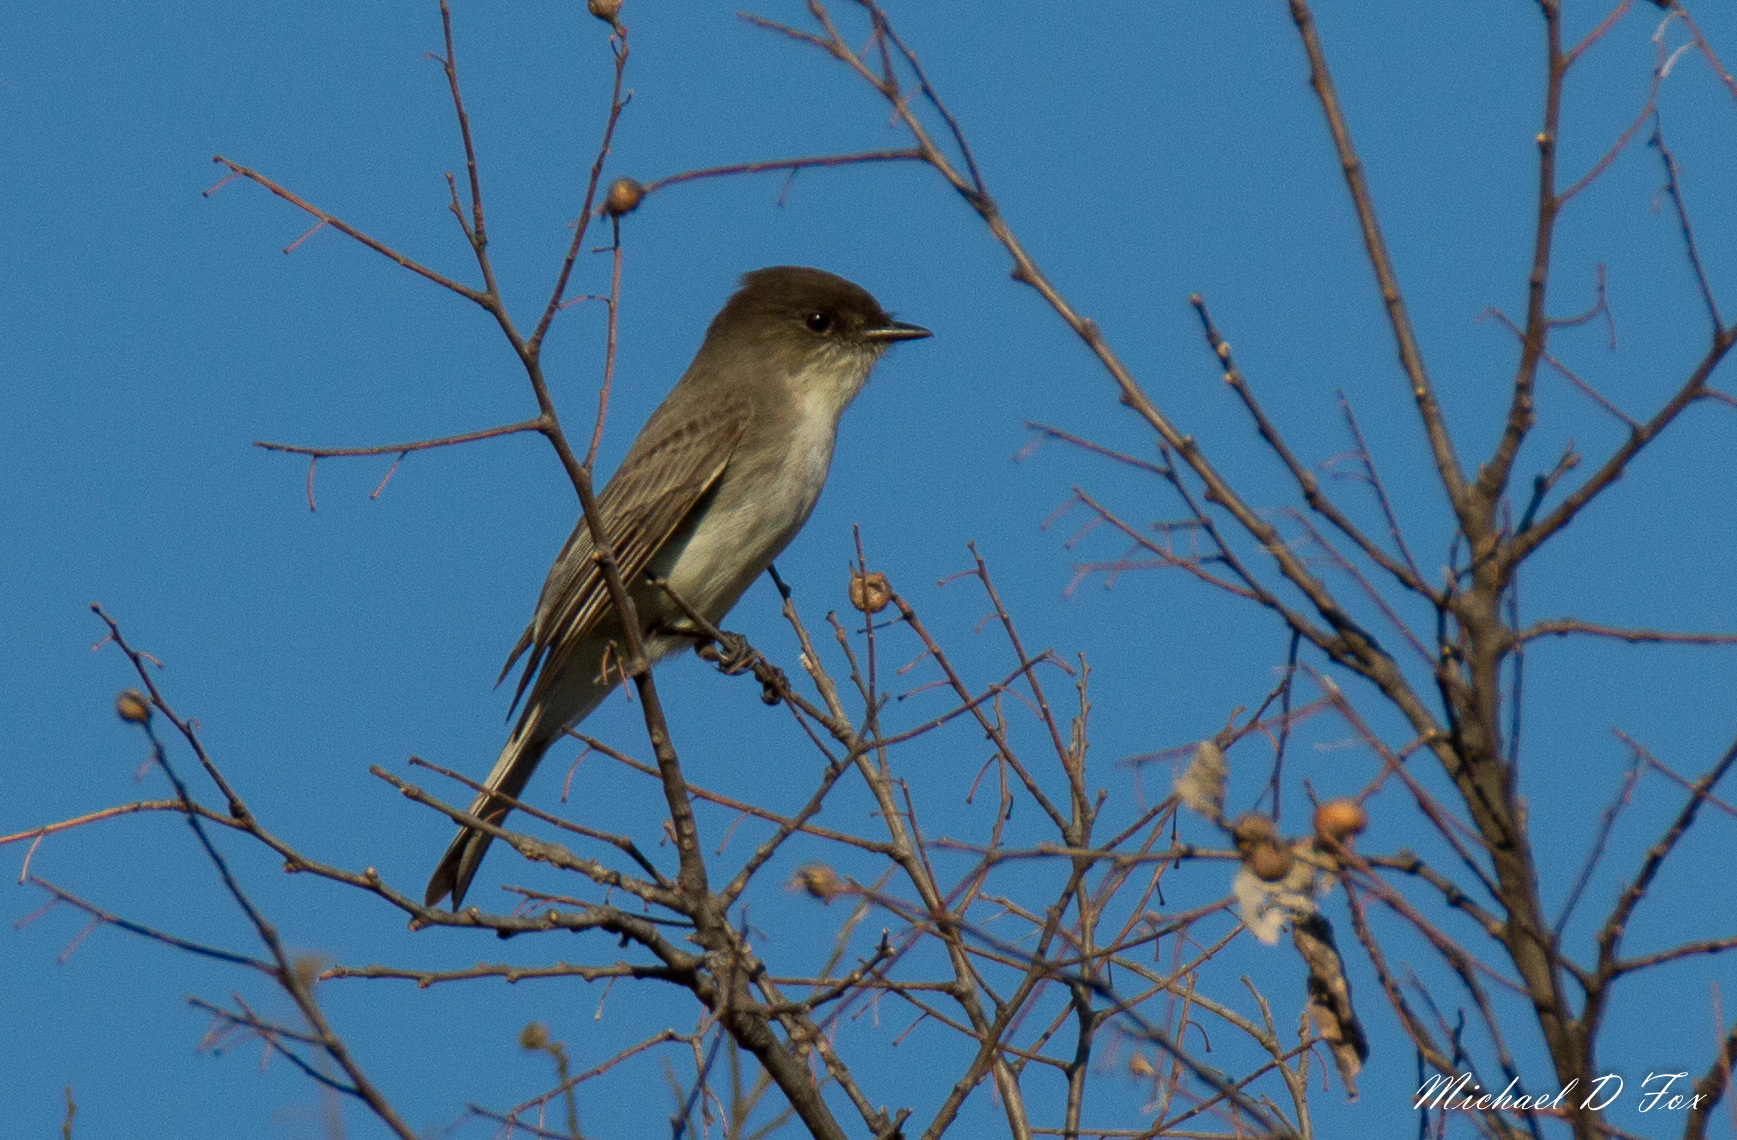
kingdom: Animalia
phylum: Chordata
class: Aves
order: Passeriformes
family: Tyrannidae
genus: Sayornis
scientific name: Sayornis phoebe
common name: Eastern phoebe
